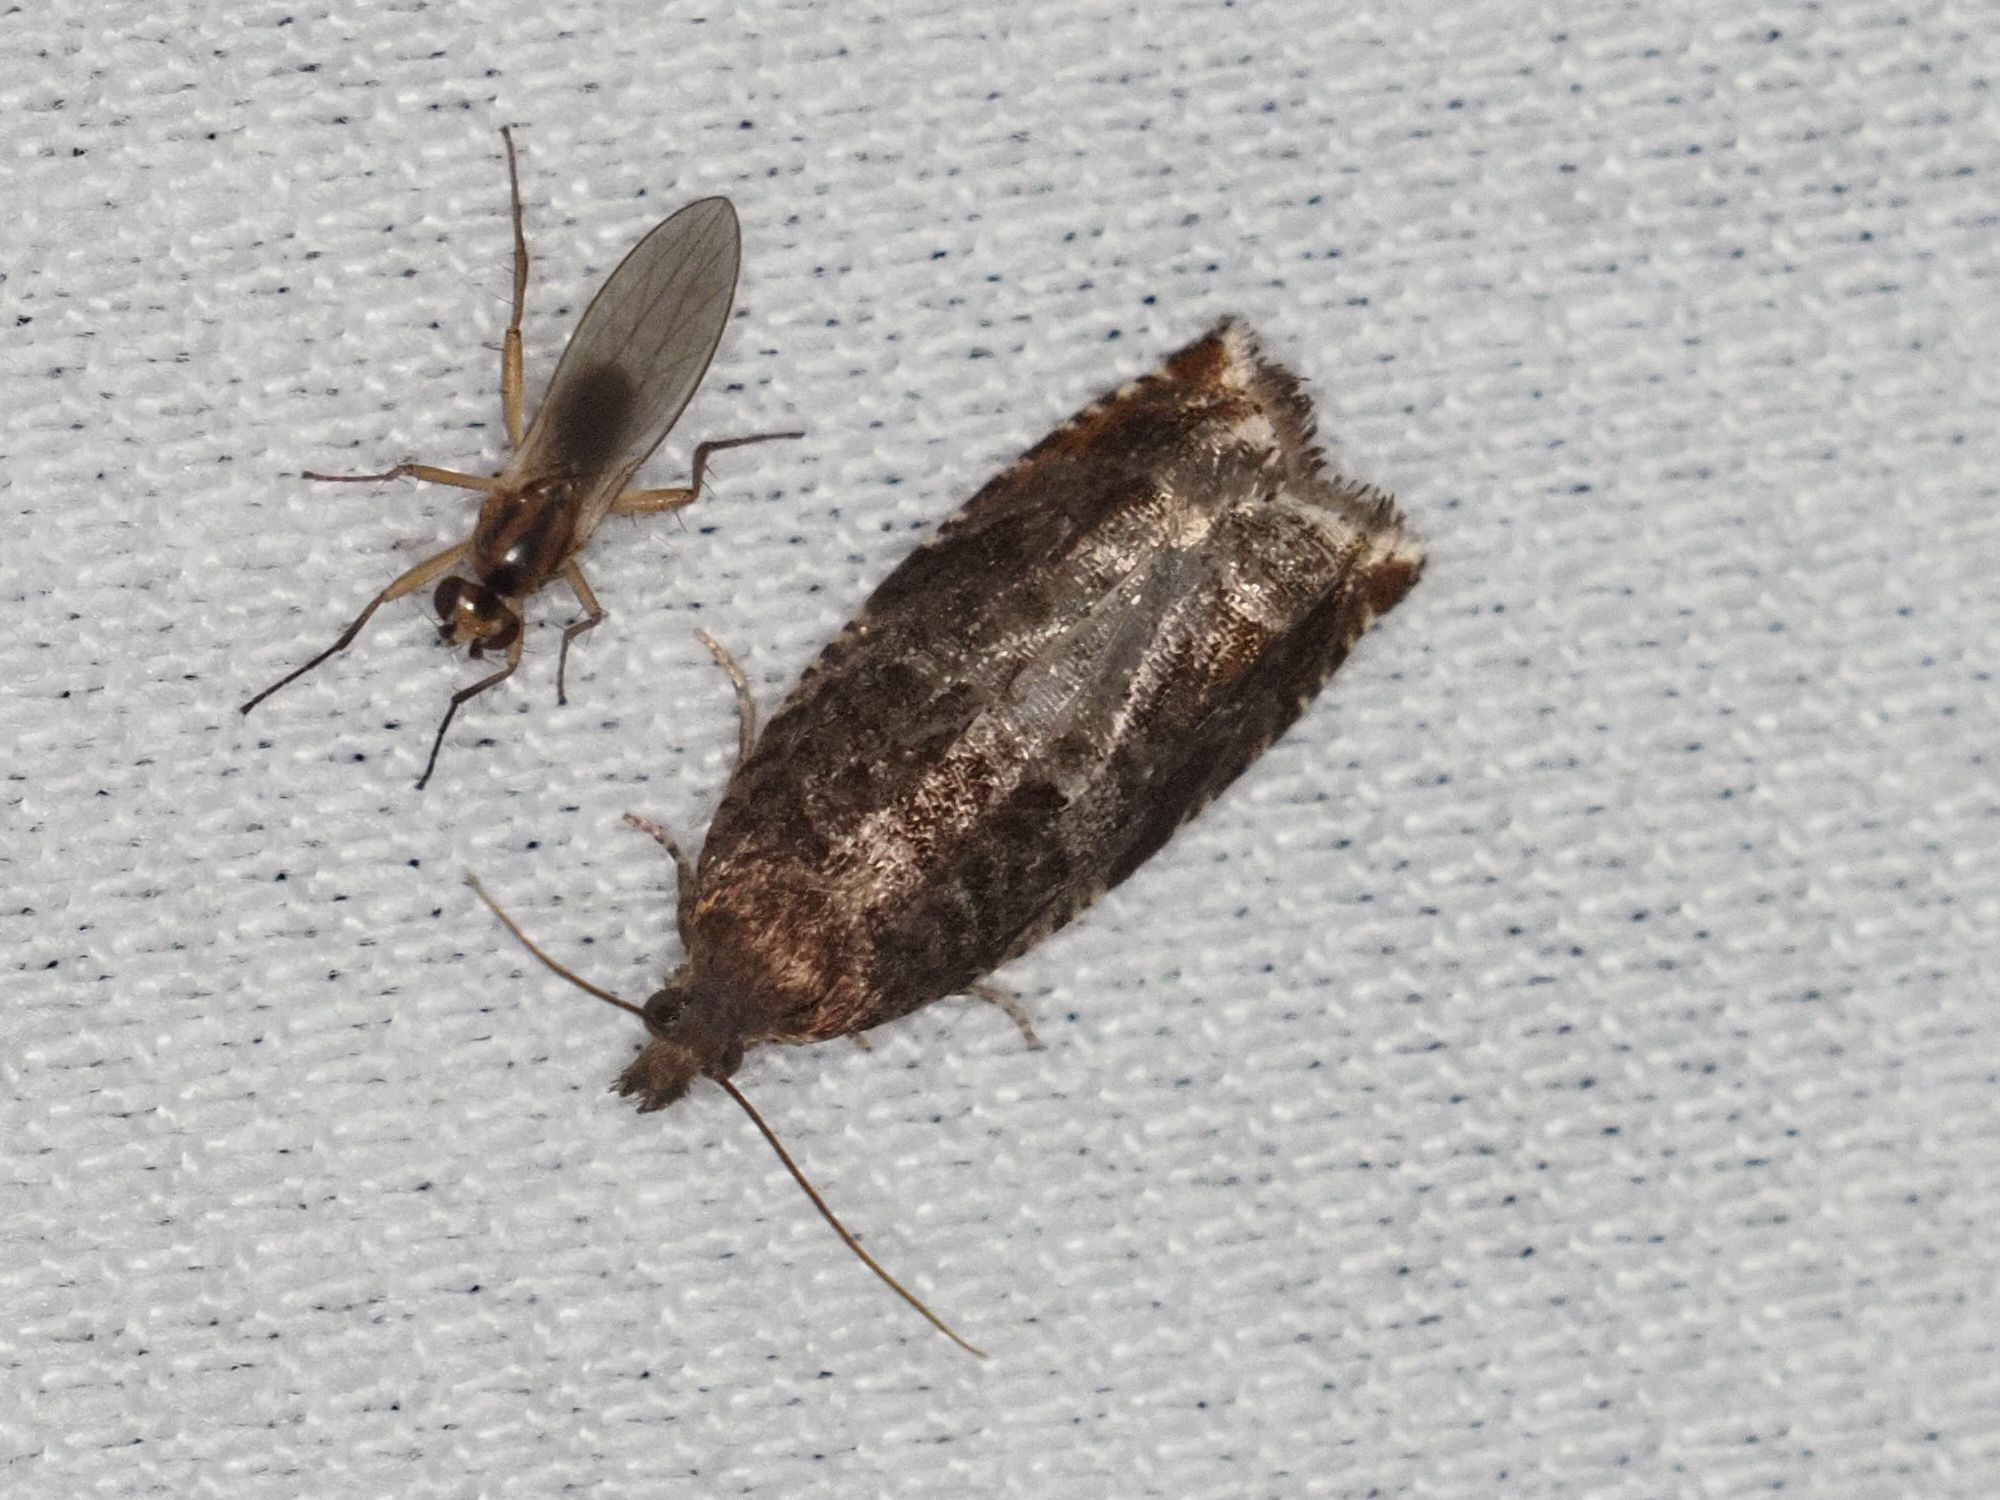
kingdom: Animalia
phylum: Arthropoda
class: Insecta
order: Lepidoptera
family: Tortricidae
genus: Ancylis
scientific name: Ancylis achatana
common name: Triangle-marked roller
